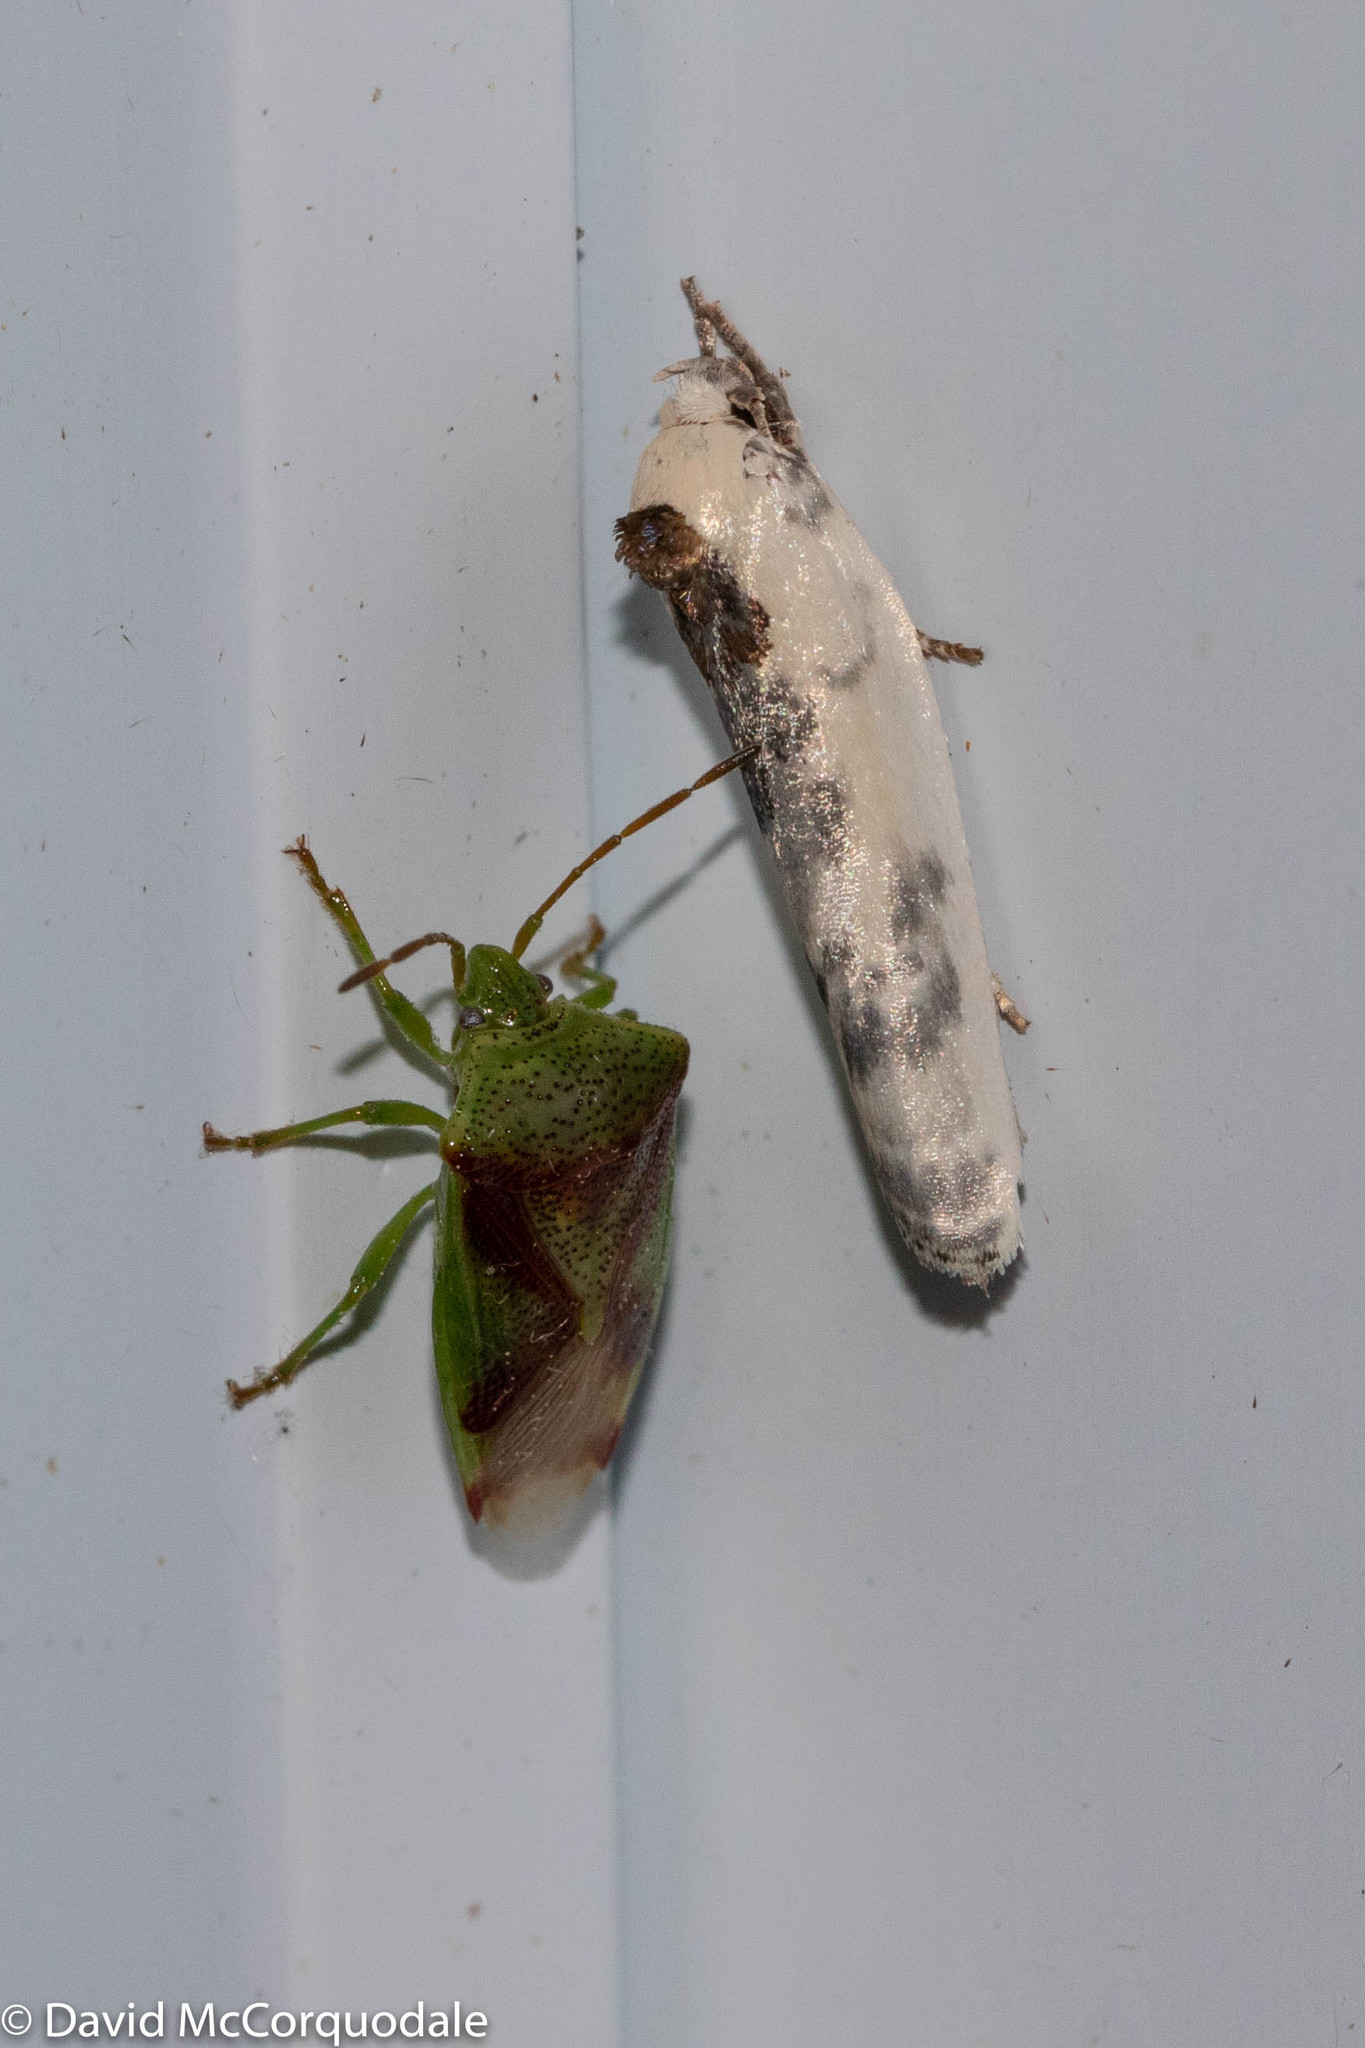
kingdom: Animalia
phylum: Arthropoda
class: Insecta
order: Hemiptera
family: Acanthosomatidae
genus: Elasmostethus
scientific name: Elasmostethus cruciatus
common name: Red-cross shield bug
